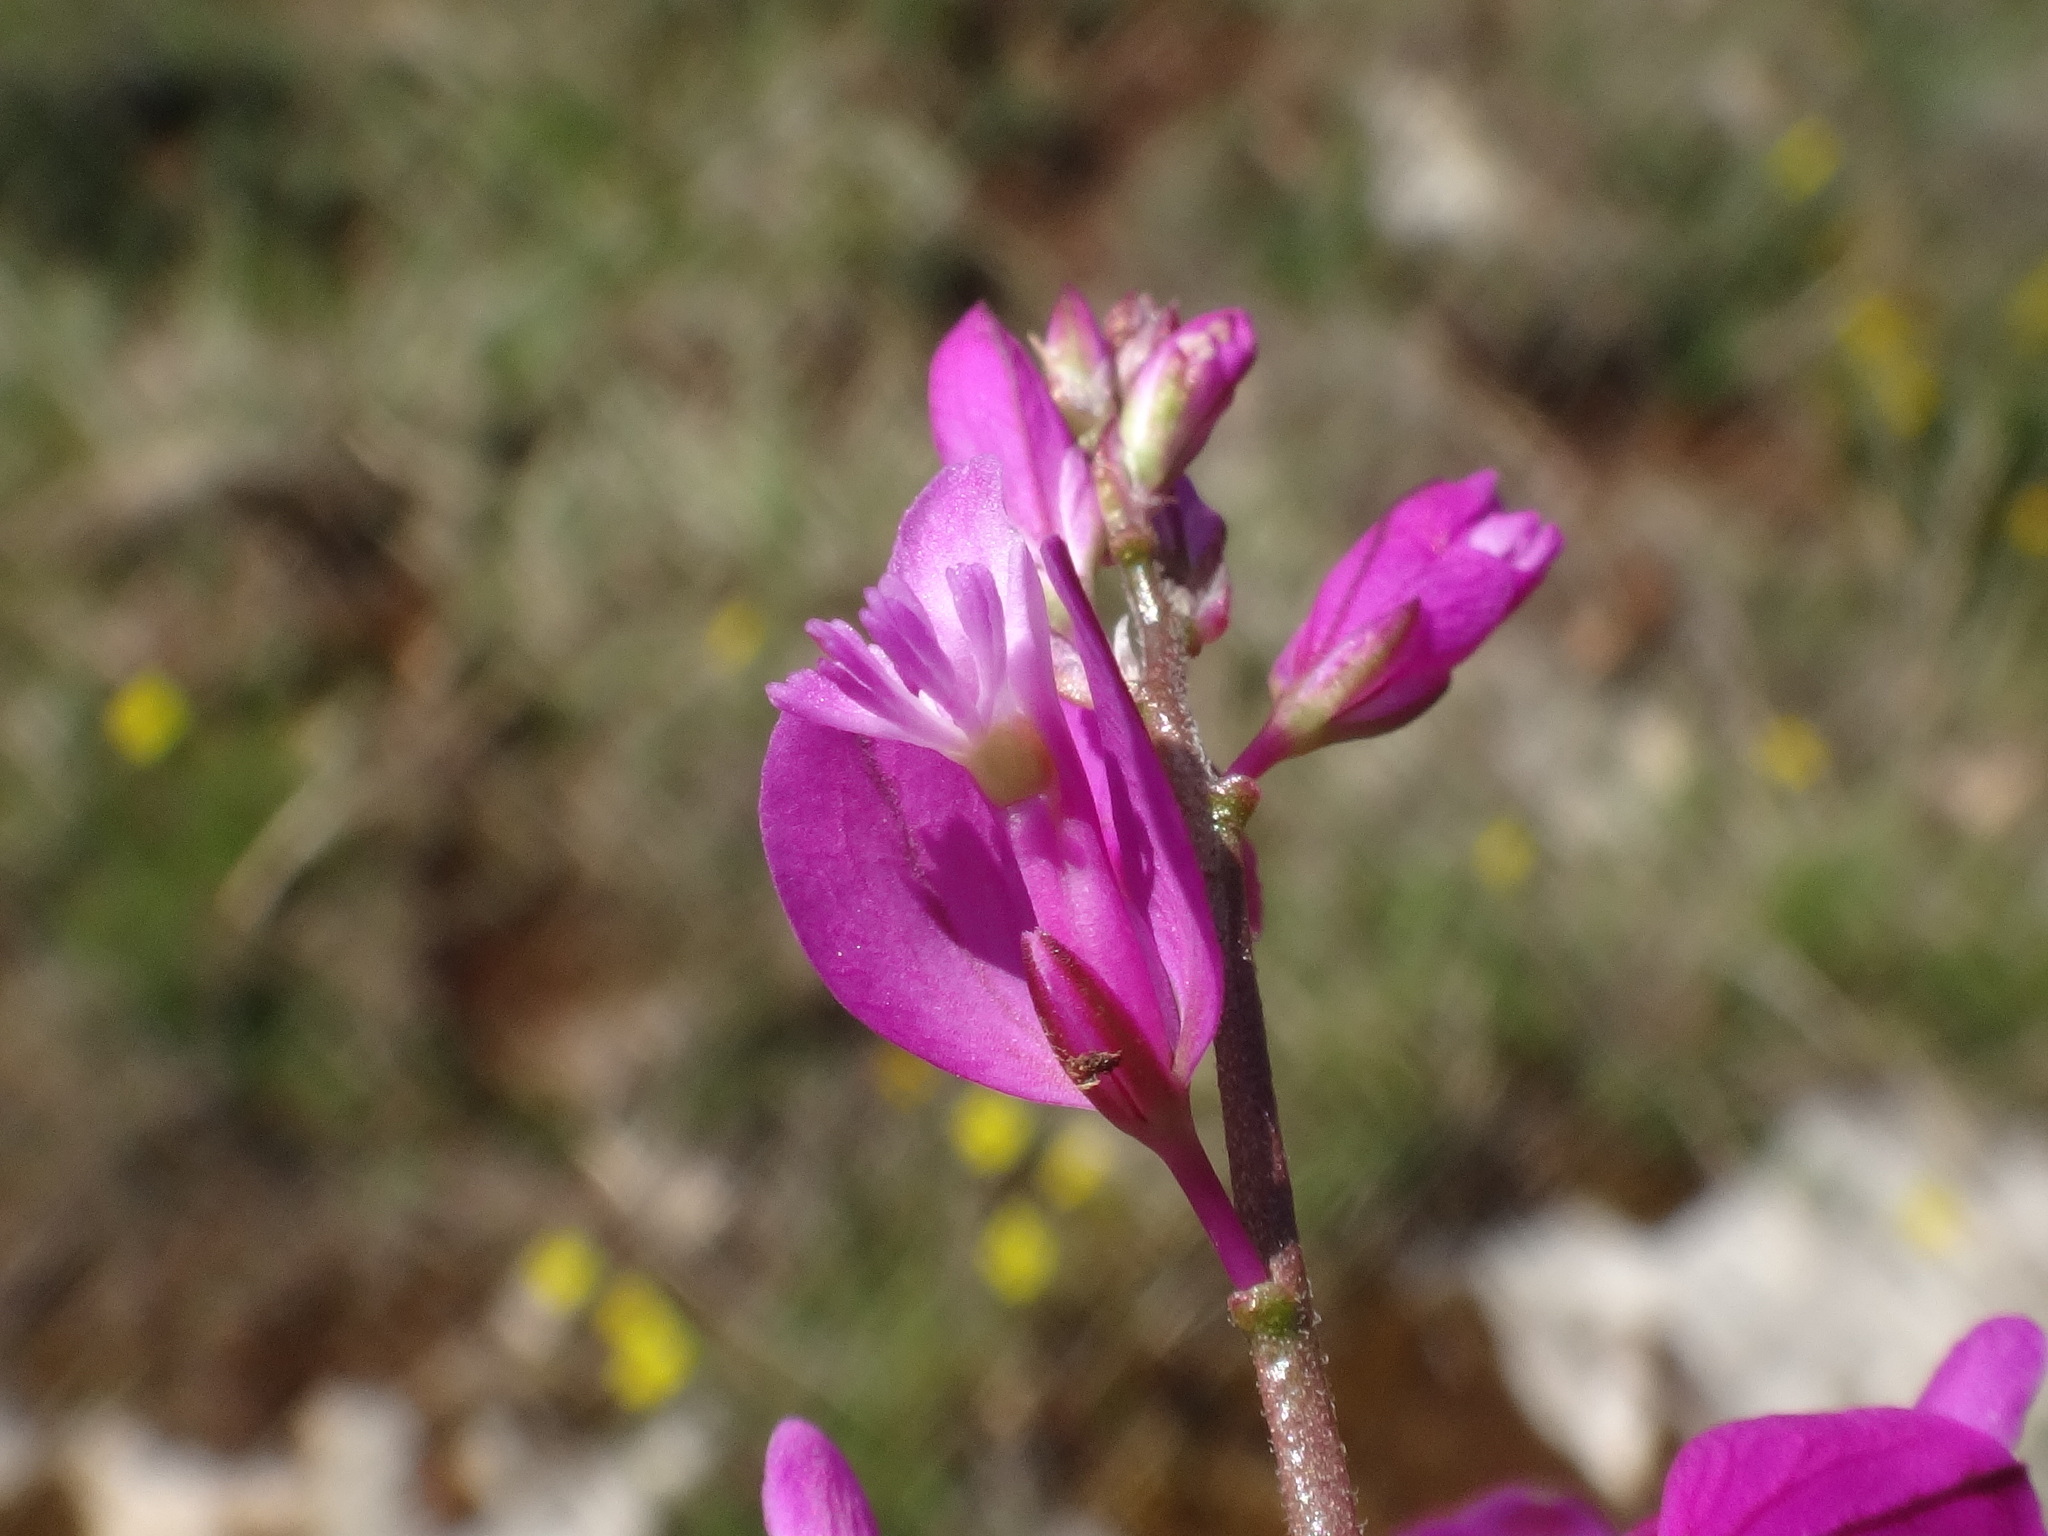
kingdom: Plantae
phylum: Tracheophyta
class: Magnoliopsida
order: Fabales
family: Polygalaceae
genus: Polygala
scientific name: Polygala nicaeensis
